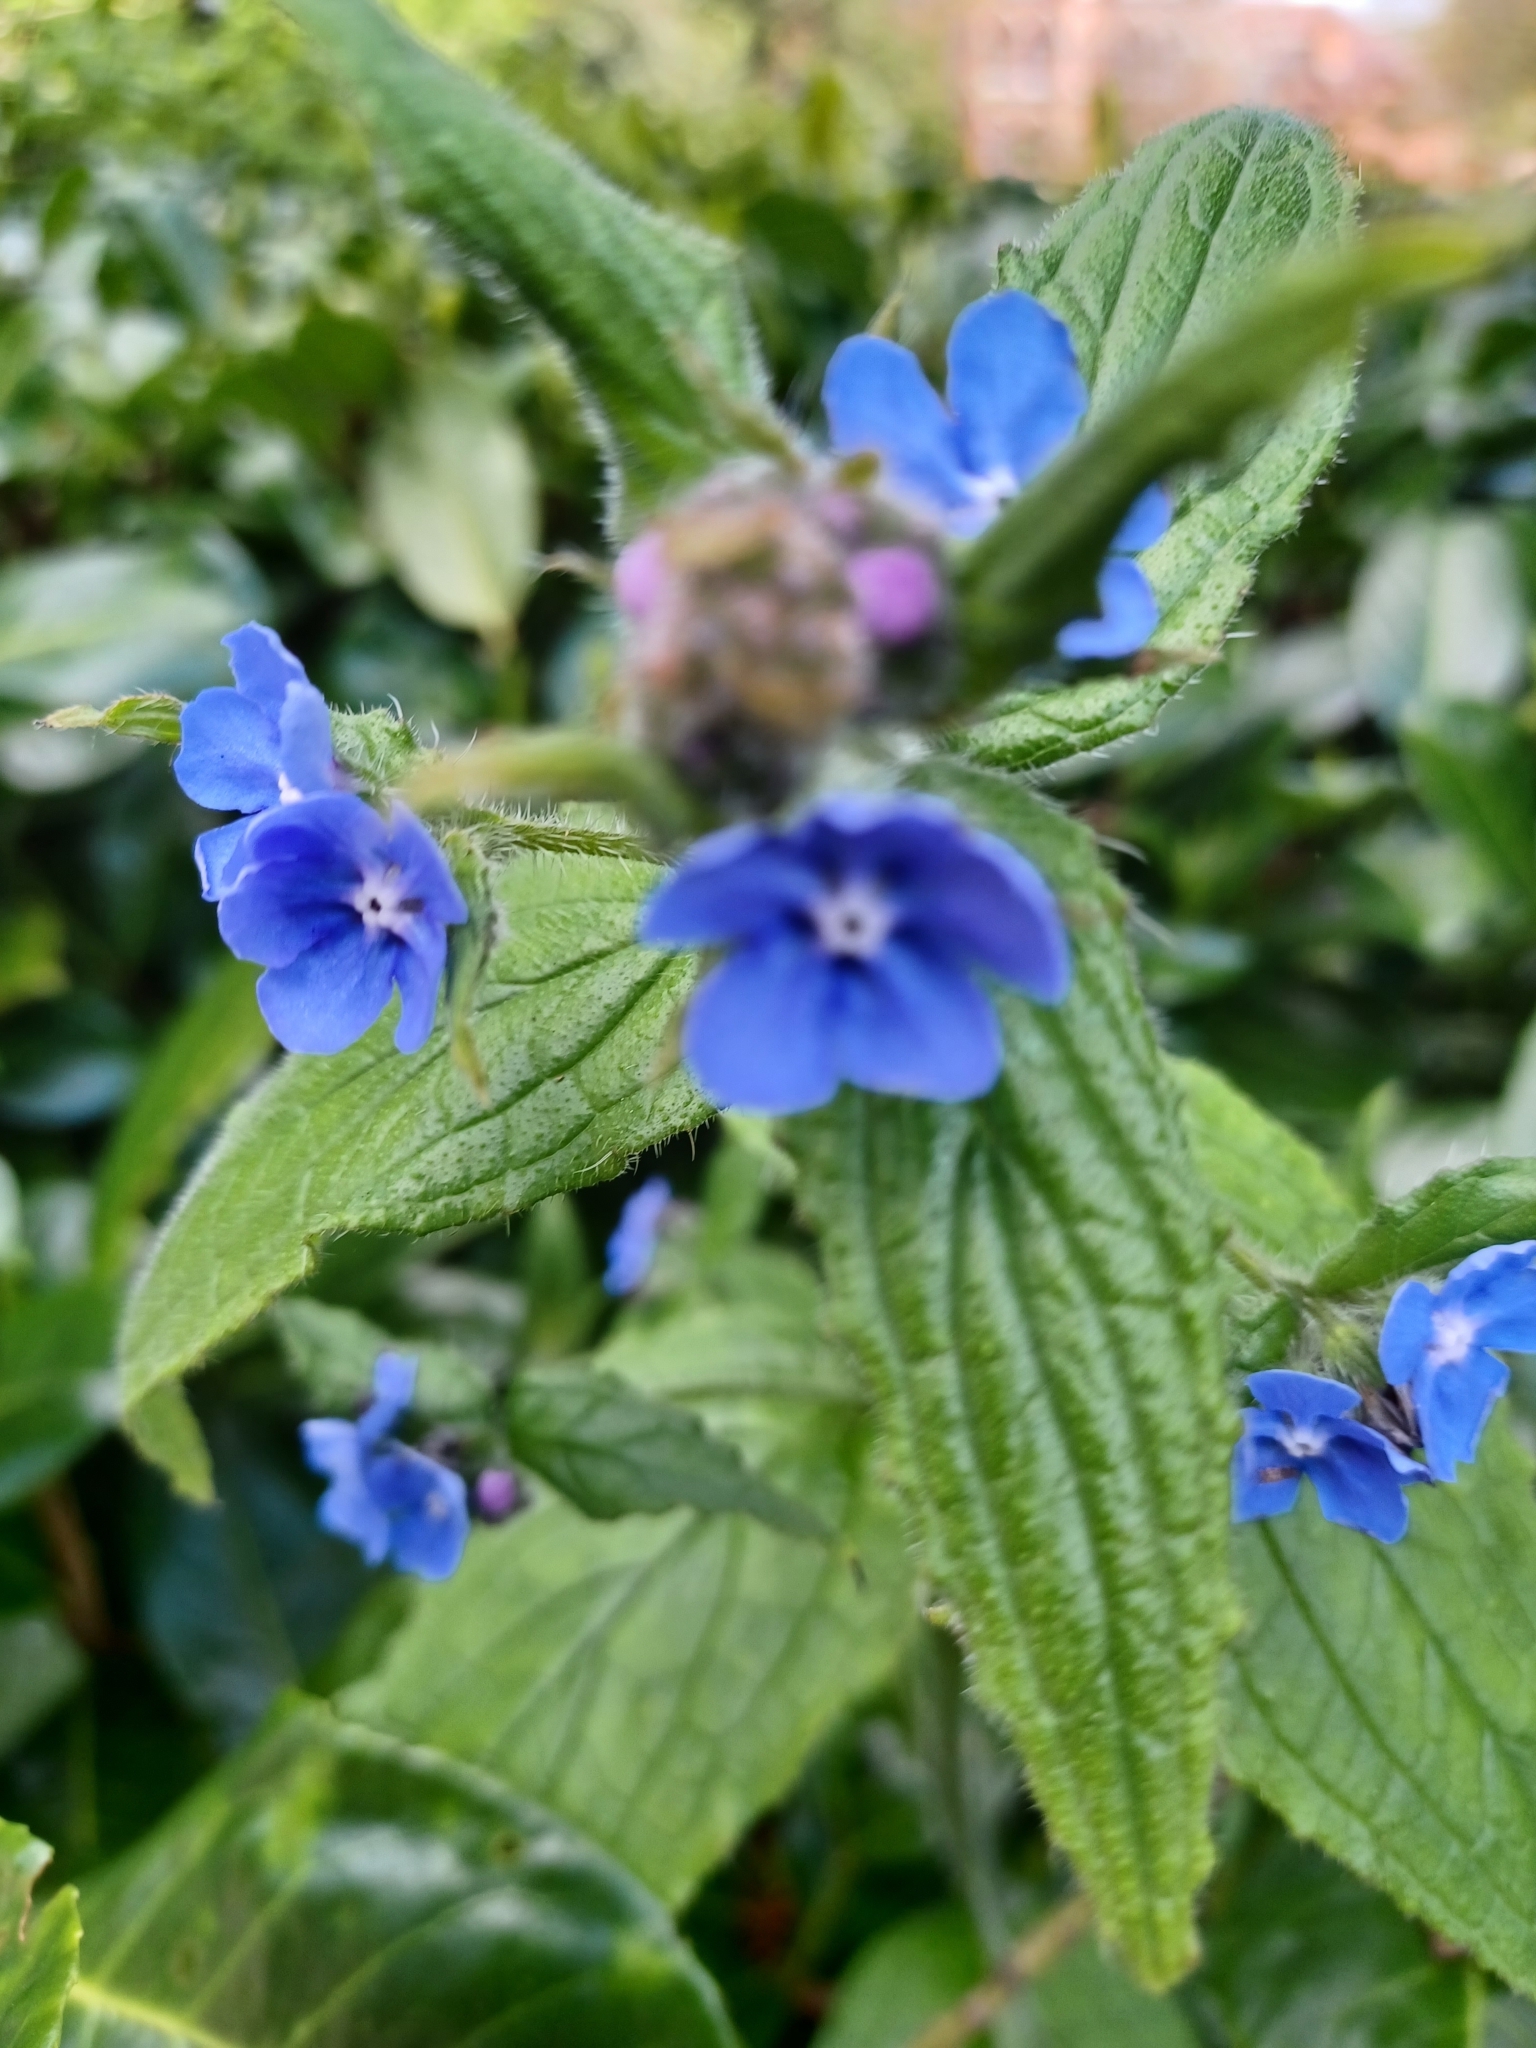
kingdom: Plantae
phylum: Tracheophyta
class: Magnoliopsida
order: Boraginales
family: Boraginaceae
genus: Pentaglottis
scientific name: Pentaglottis sempervirens
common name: Green alkanet
